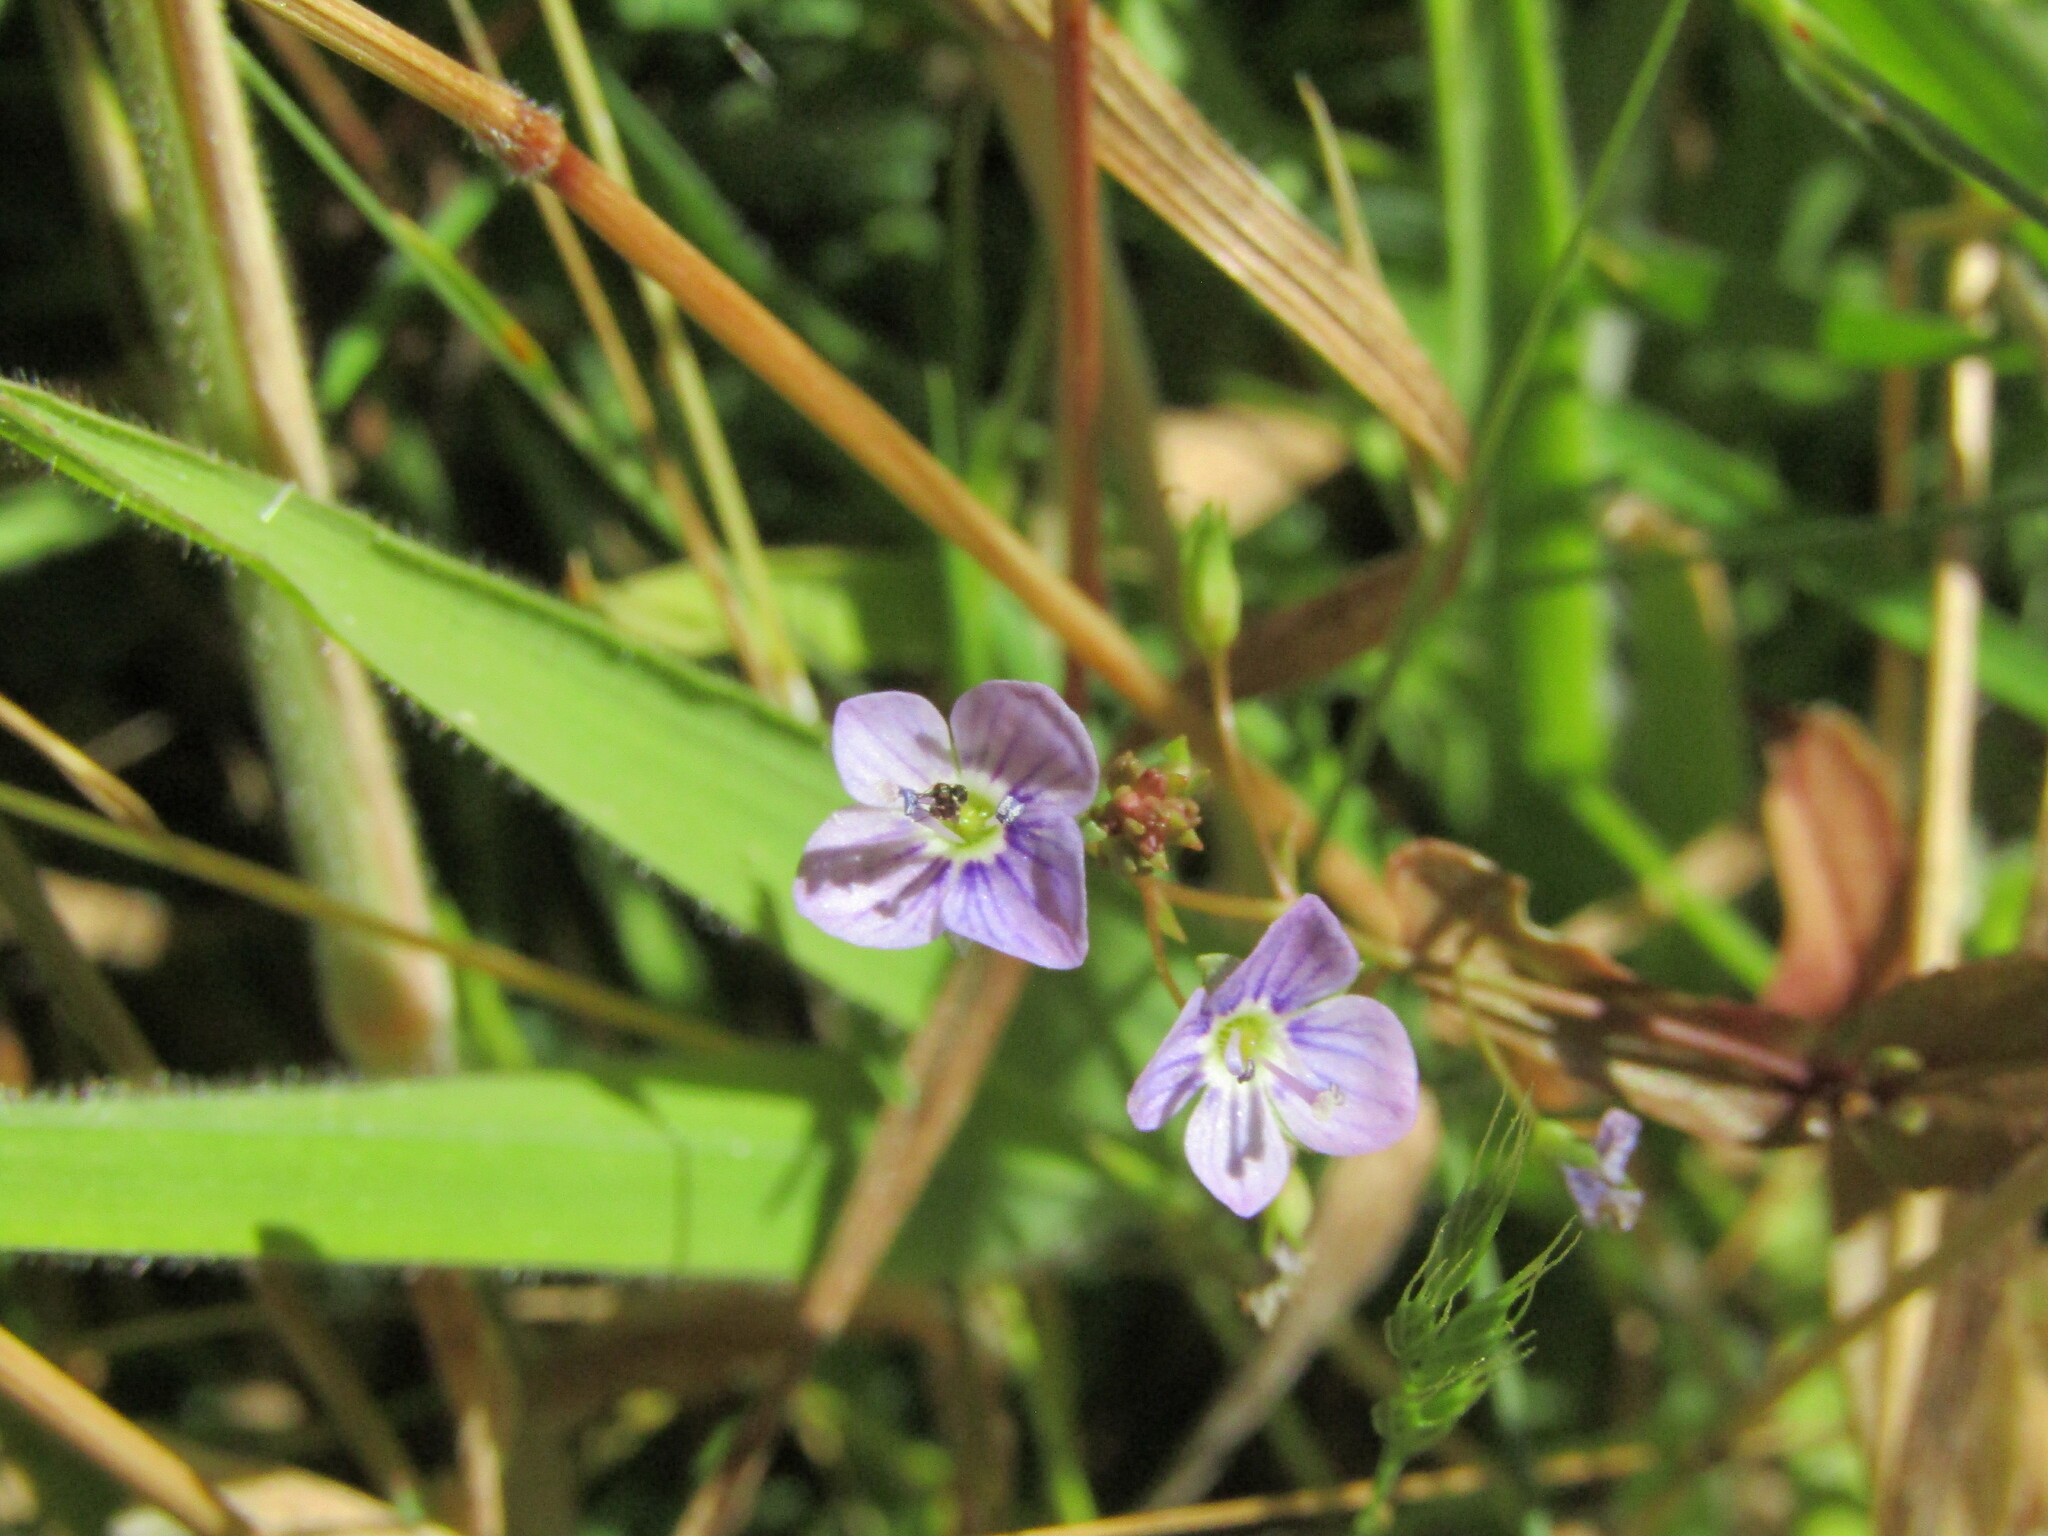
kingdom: Plantae
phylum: Tracheophyta
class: Magnoliopsida
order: Lamiales
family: Plantaginaceae
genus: Veronica
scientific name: Veronica anagallis-aquatica
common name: Water speedwell
